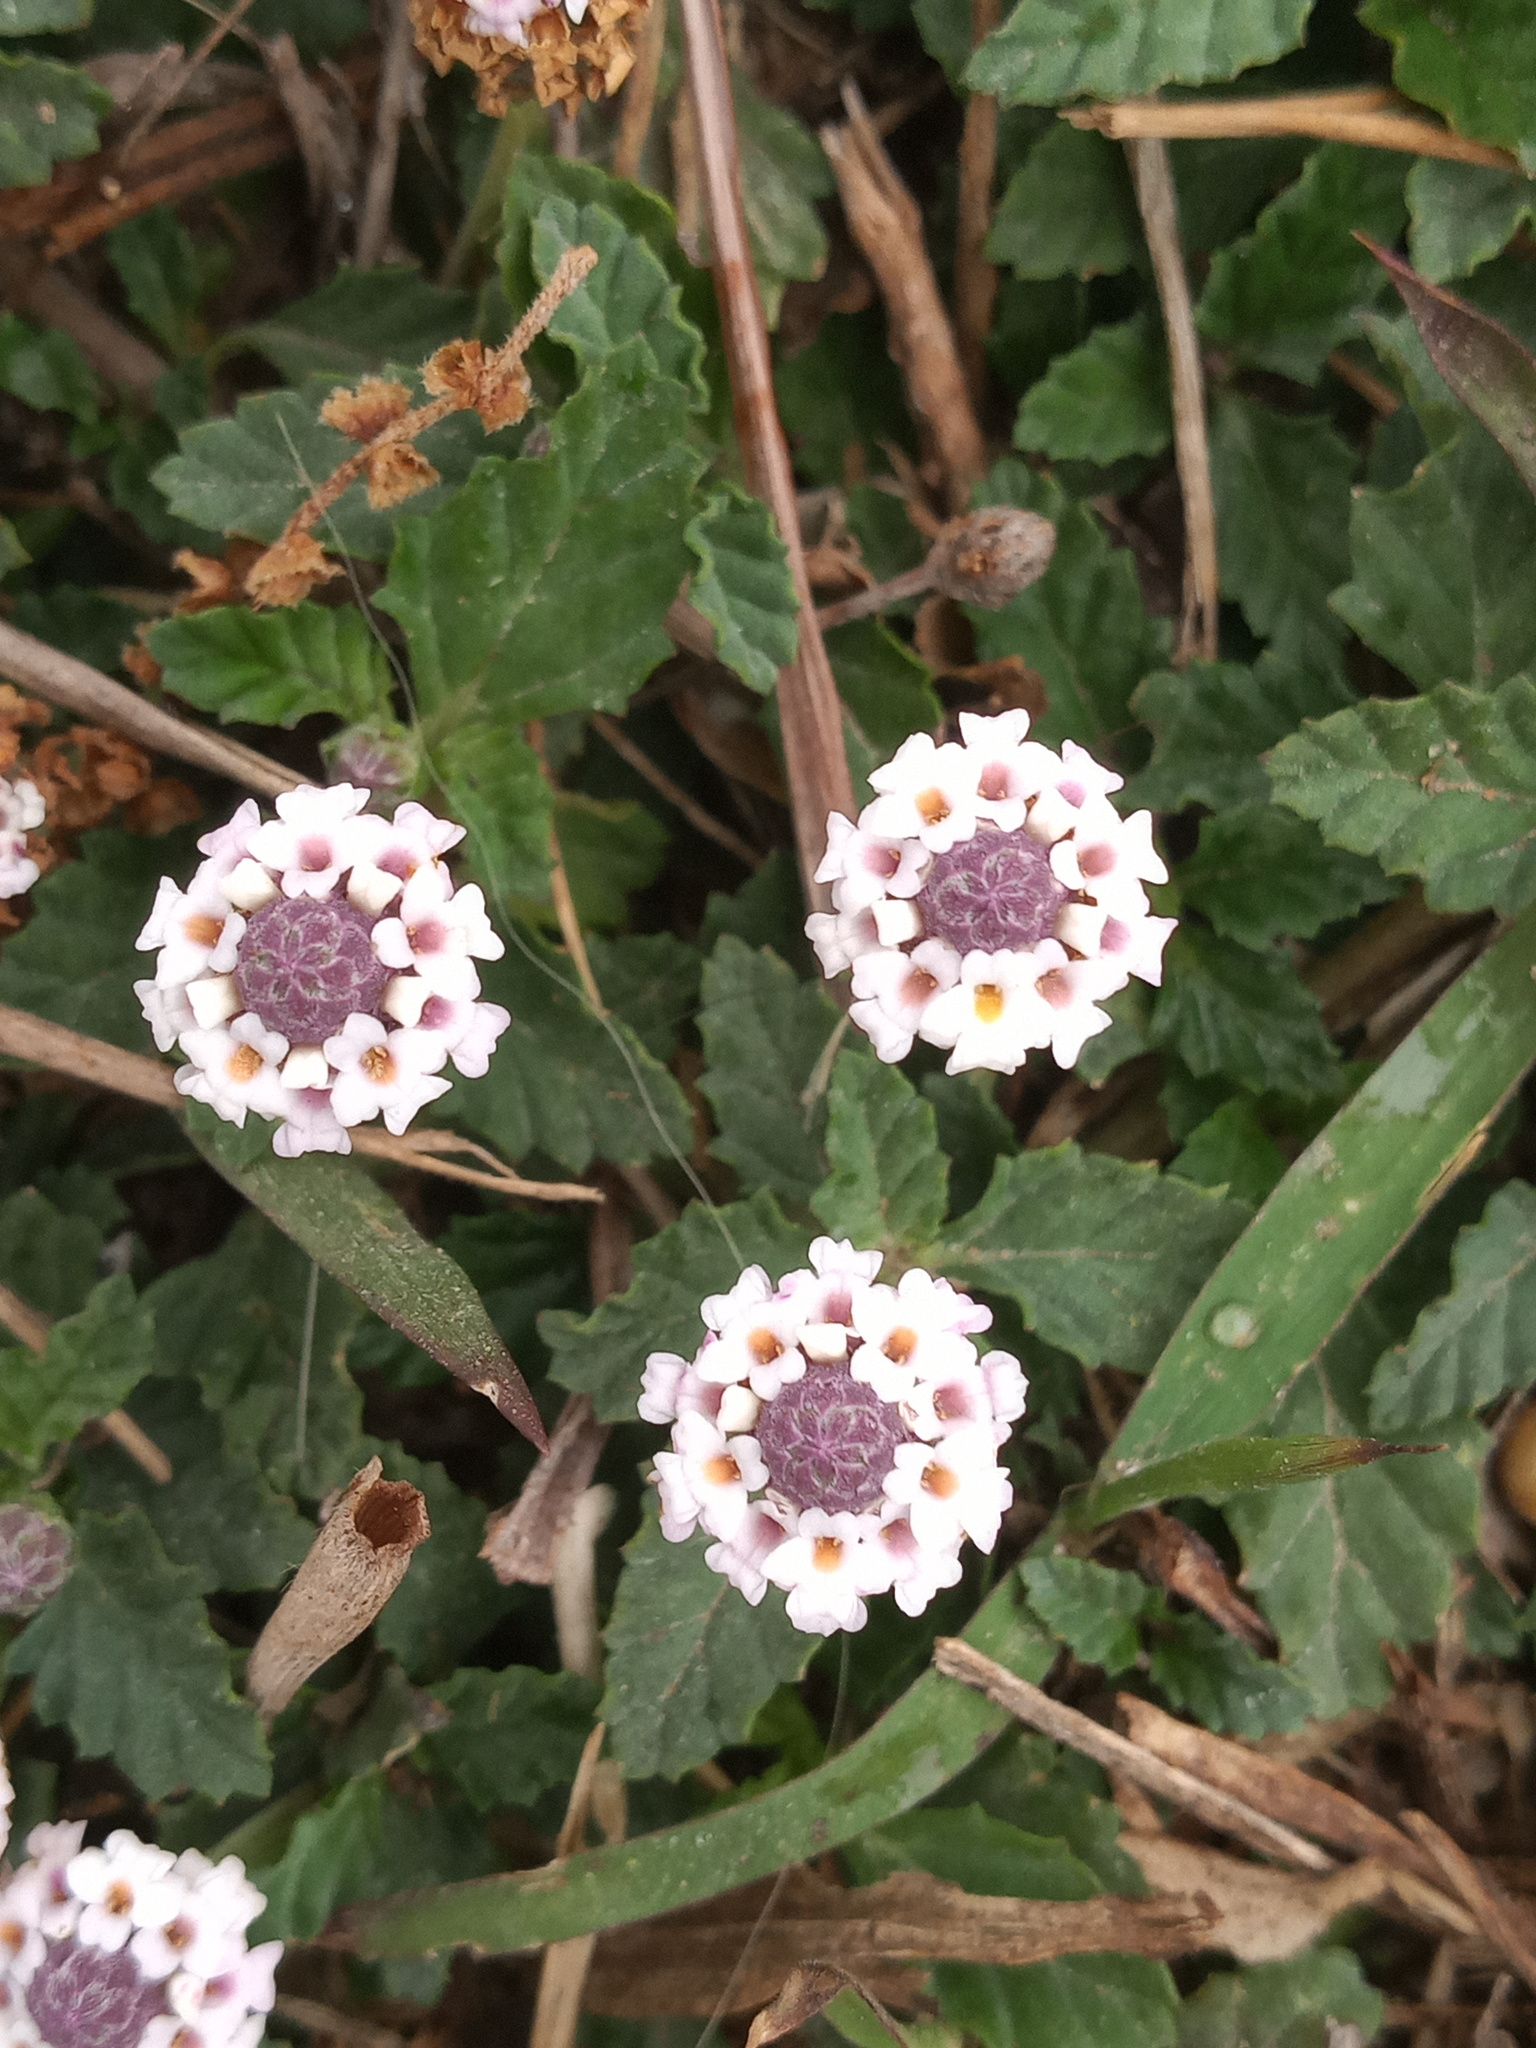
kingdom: Plantae
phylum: Tracheophyta
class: Magnoliopsida
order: Lamiales
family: Verbenaceae
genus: Phyla
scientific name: Phyla nodiflora
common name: Frogfruit
